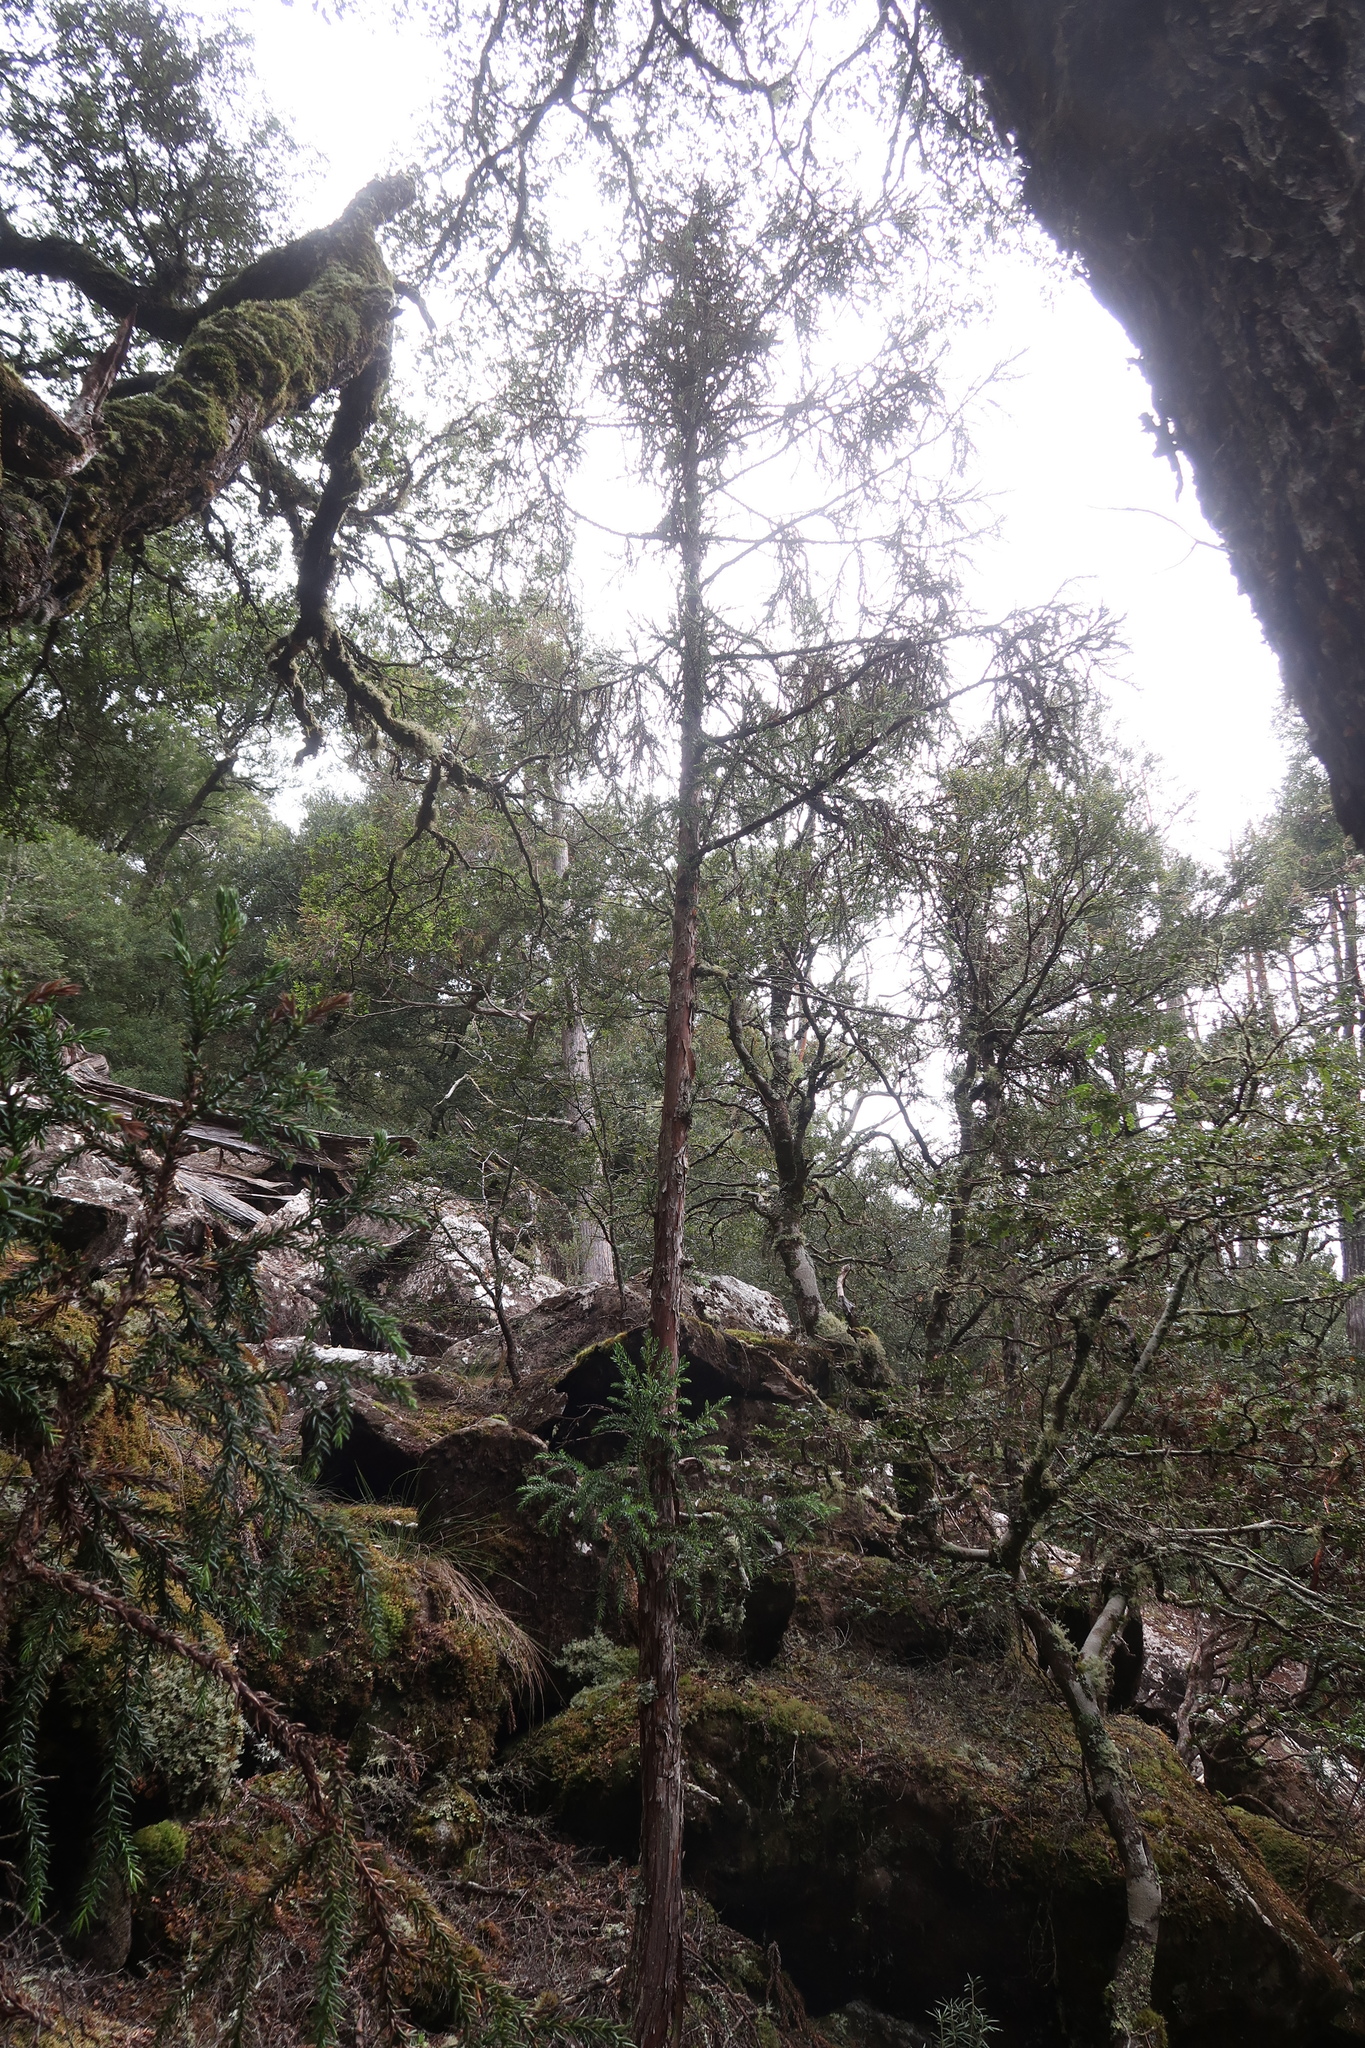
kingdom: Plantae
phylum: Tracheophyta
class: Pinopsida
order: Pinales
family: Cupressaceae
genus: Athrotaxis
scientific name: Athrotaxis selaginoides
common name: King william pine
